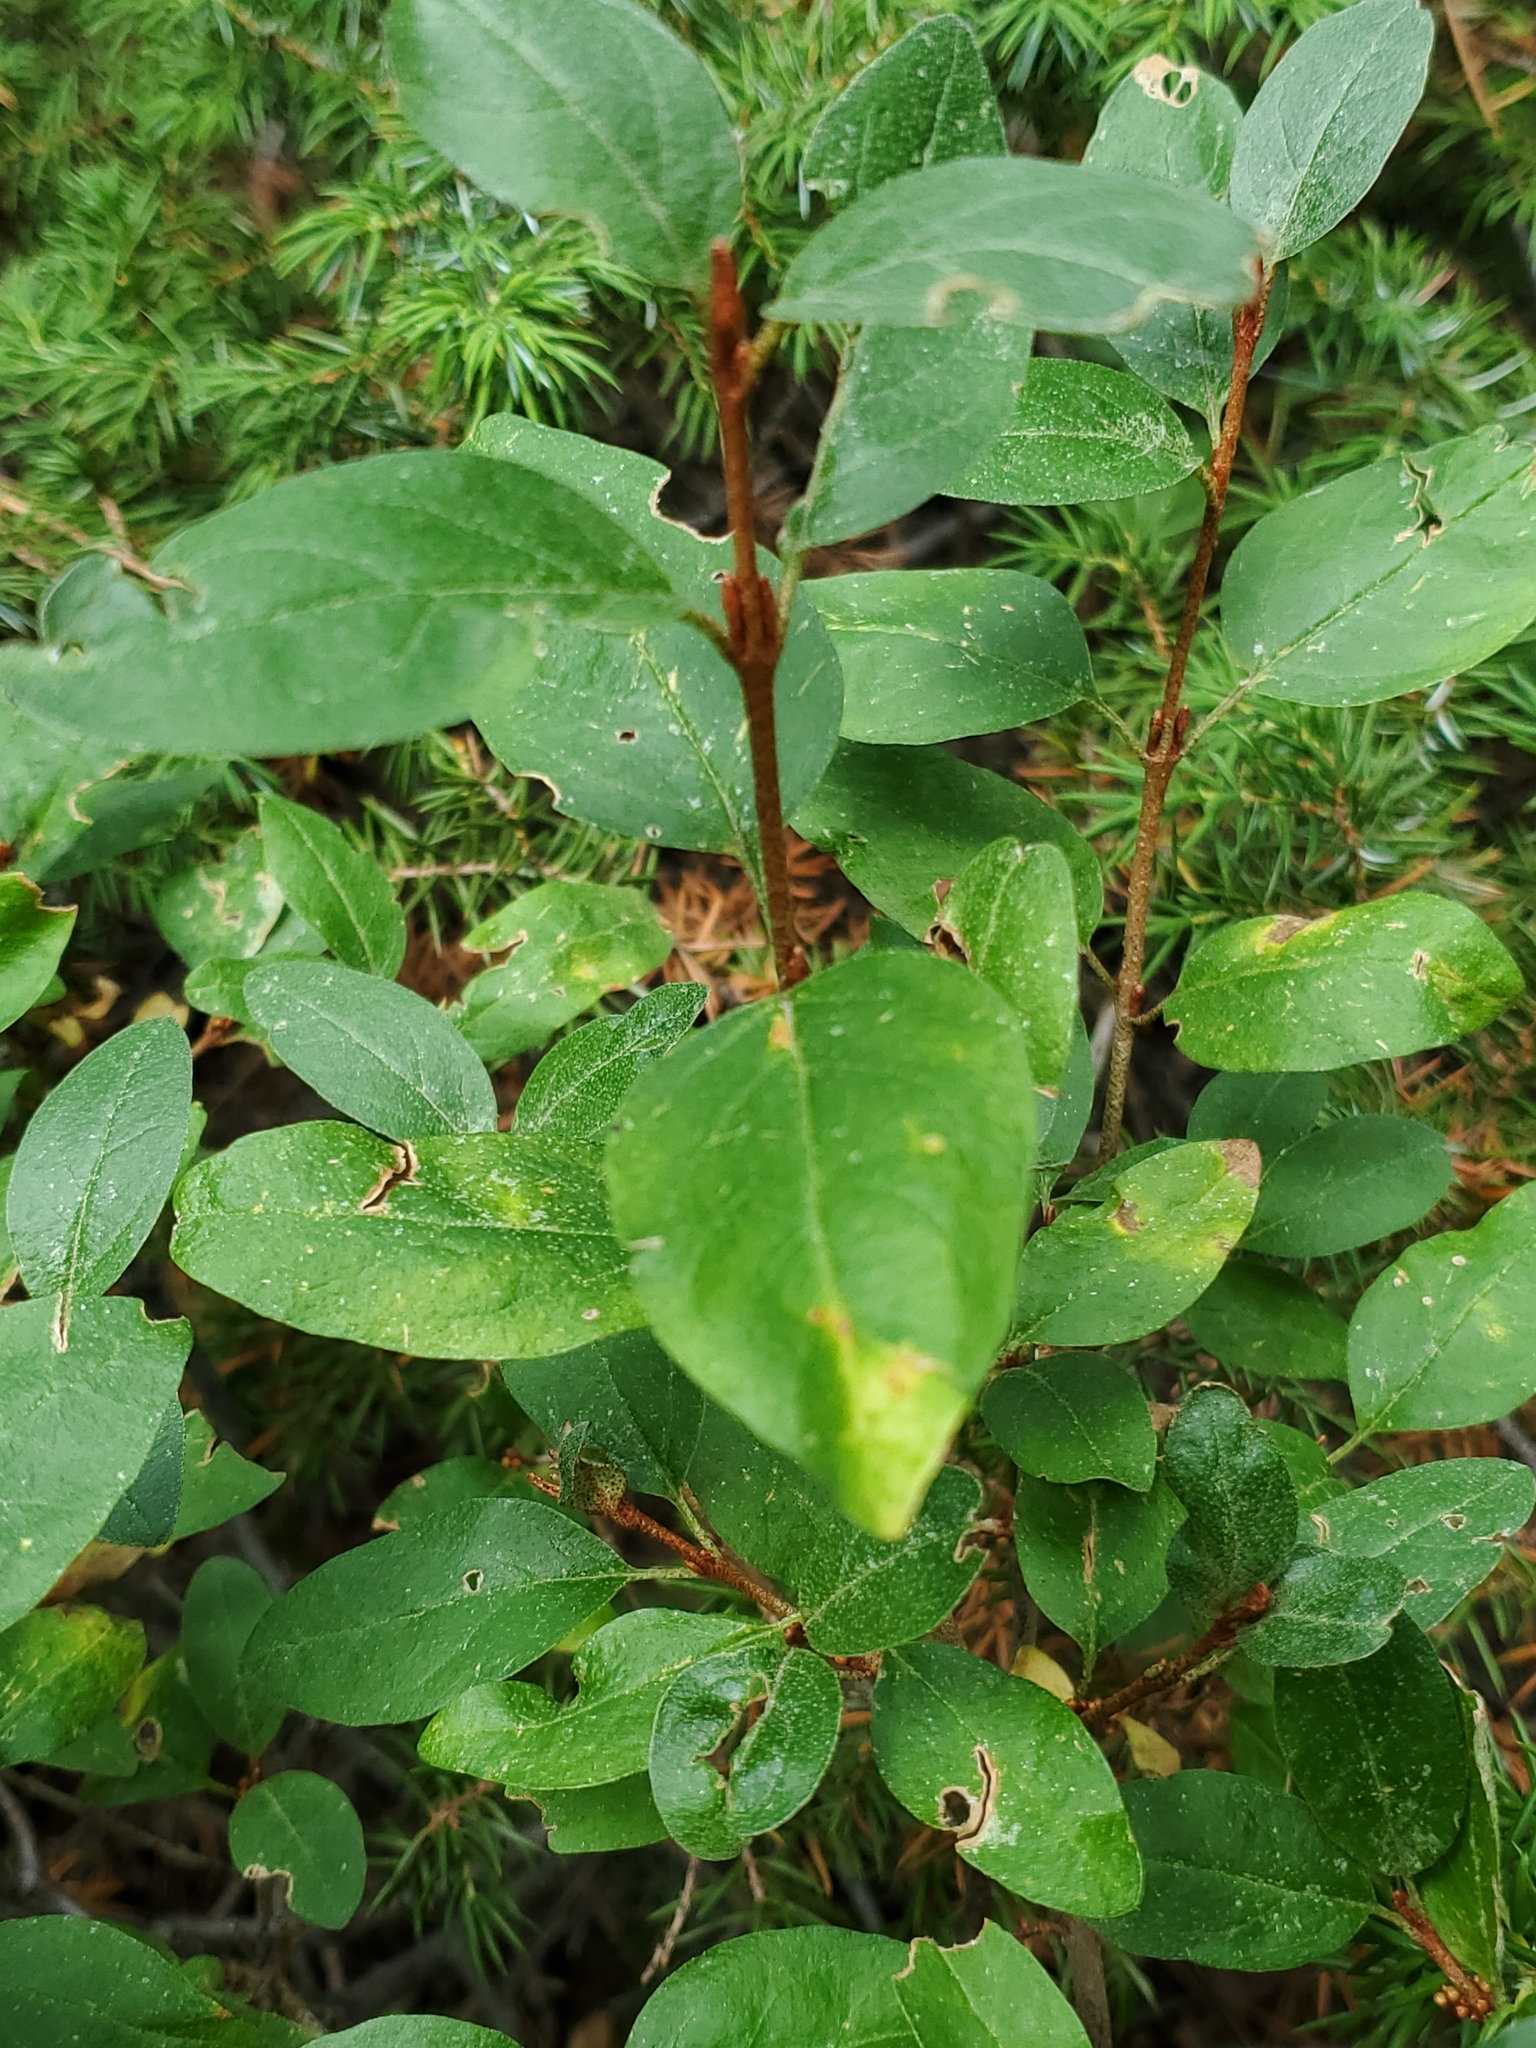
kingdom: Plantae
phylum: Tracheophyta
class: Magnoliopsida
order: Rosales
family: Elaeagnaceae
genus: Shepherdia
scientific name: Shepherdia canadensis
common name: Soapberry
